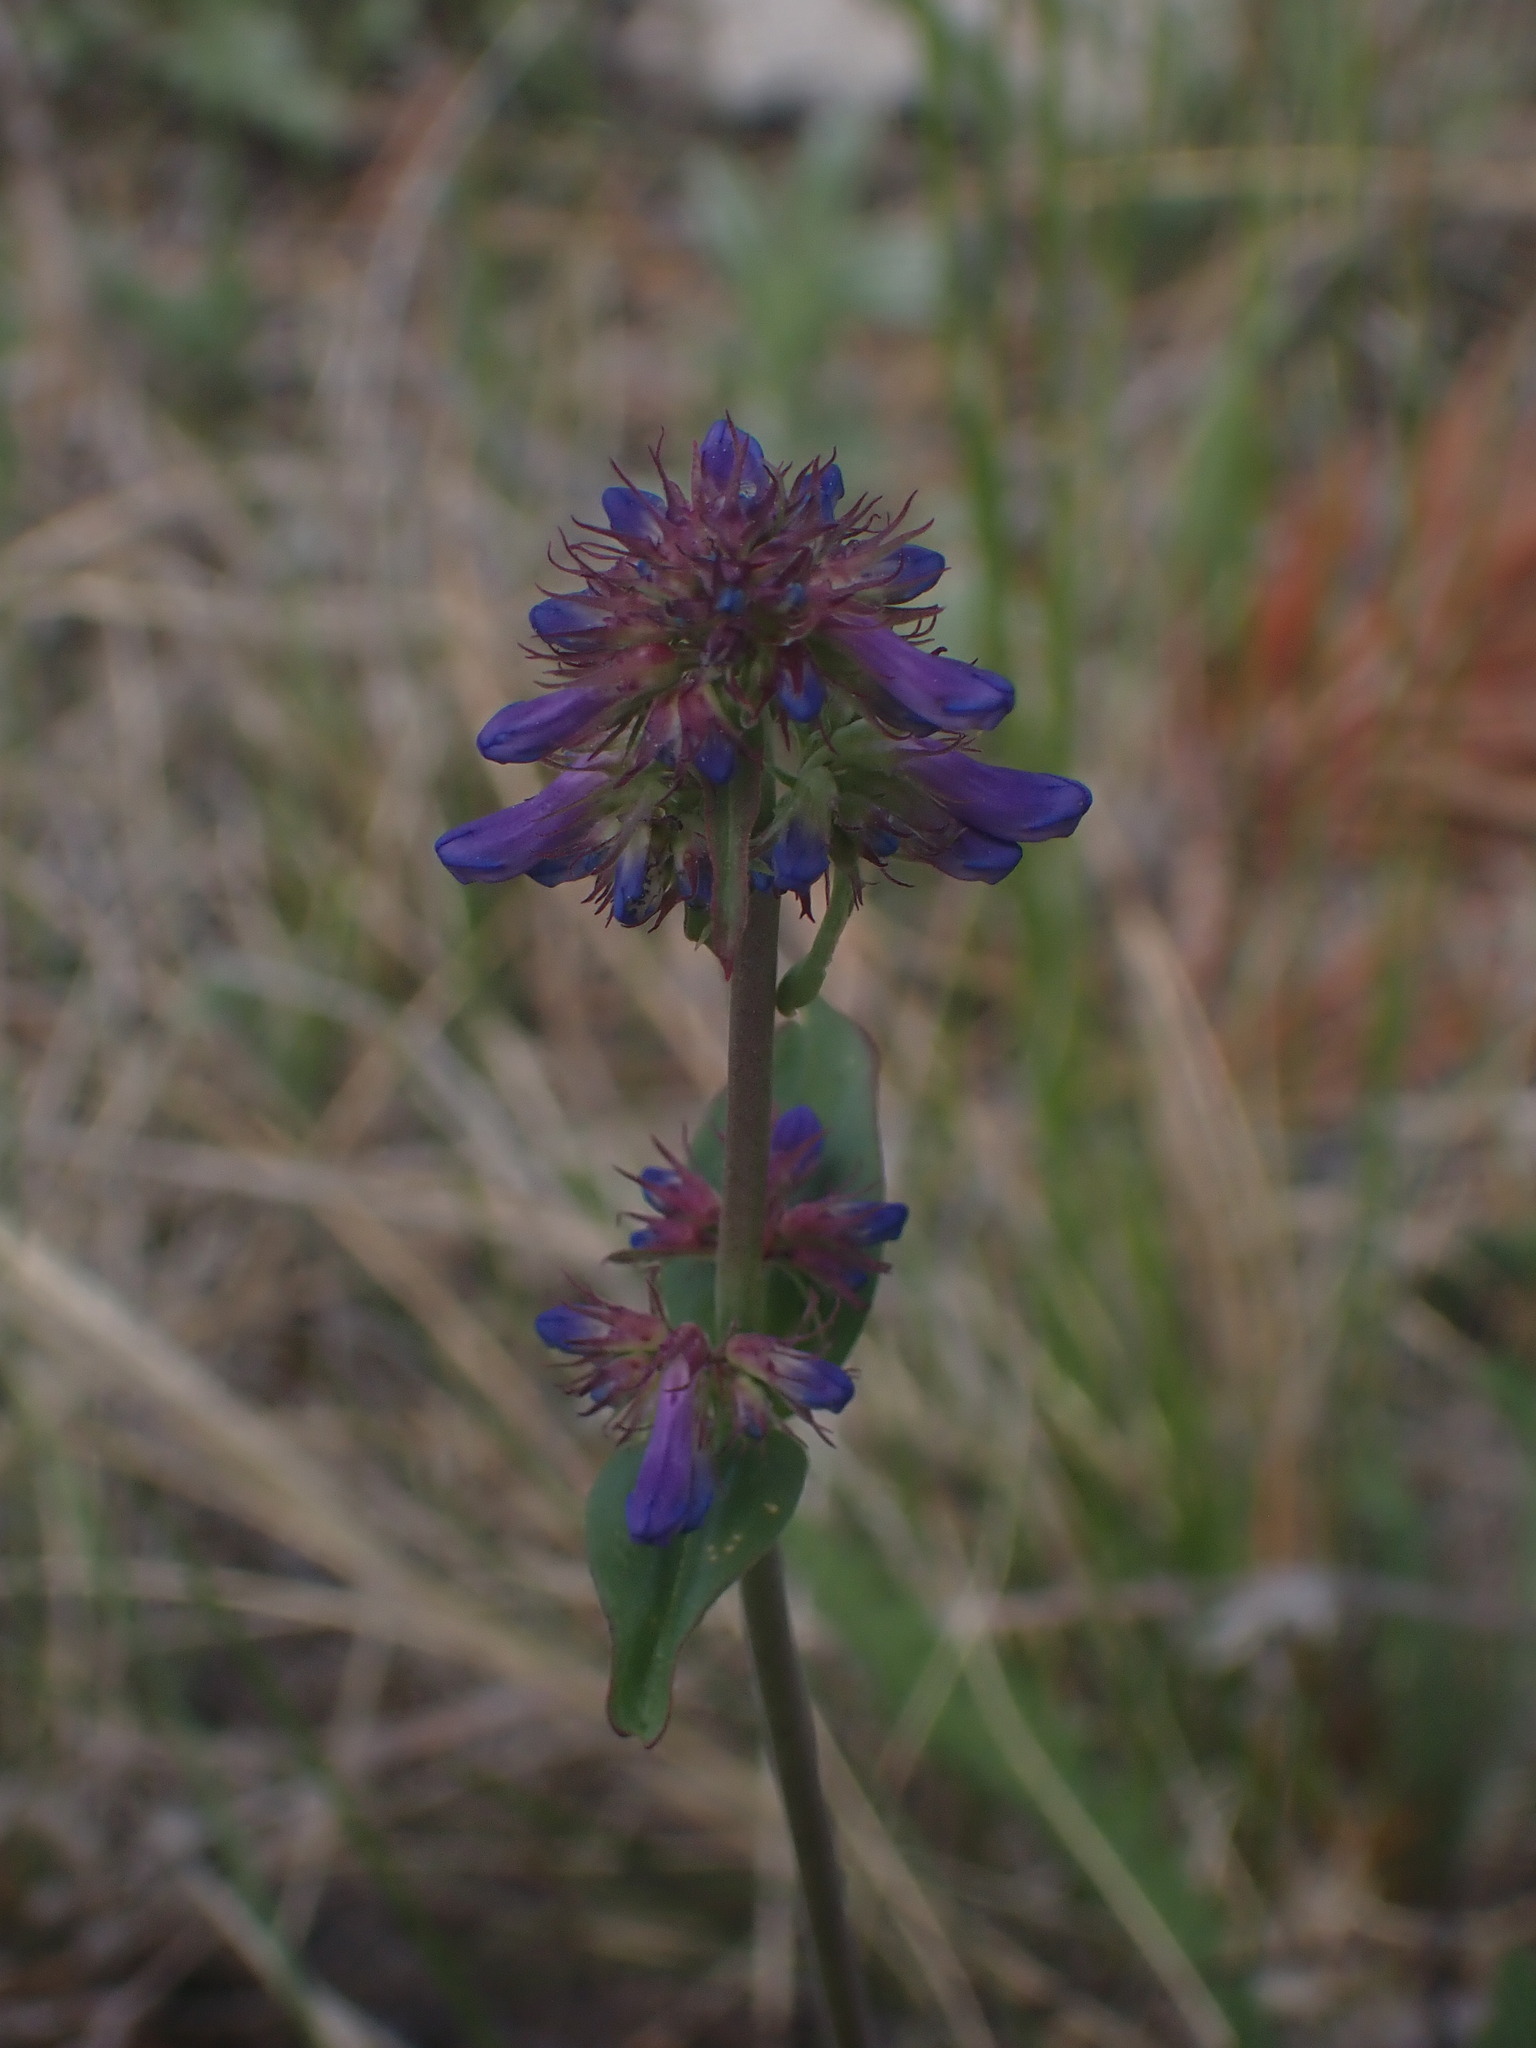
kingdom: Plantae
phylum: Tracheophyta
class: Magnoliopsida
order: Lamiales
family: Plantaginaceae
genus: Penstemon
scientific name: Penstemon procerus
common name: Small-flower penstemon
